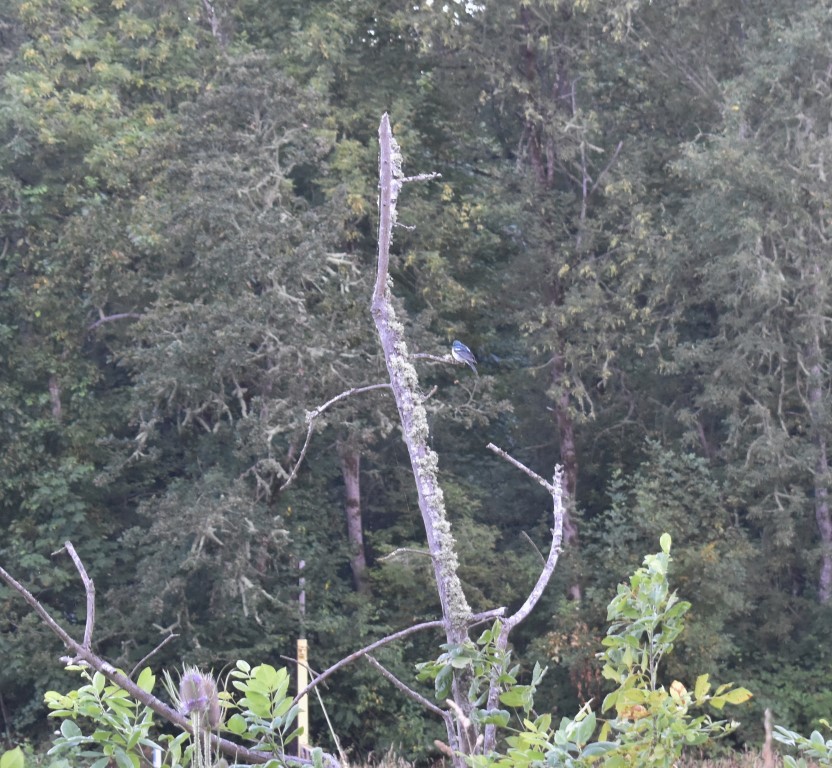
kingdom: Animalia
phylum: Chordata
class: Aves
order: Passeriformes
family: Cardinalidae
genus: Passerina
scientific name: Passerina amoena
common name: Lazuli bunting
